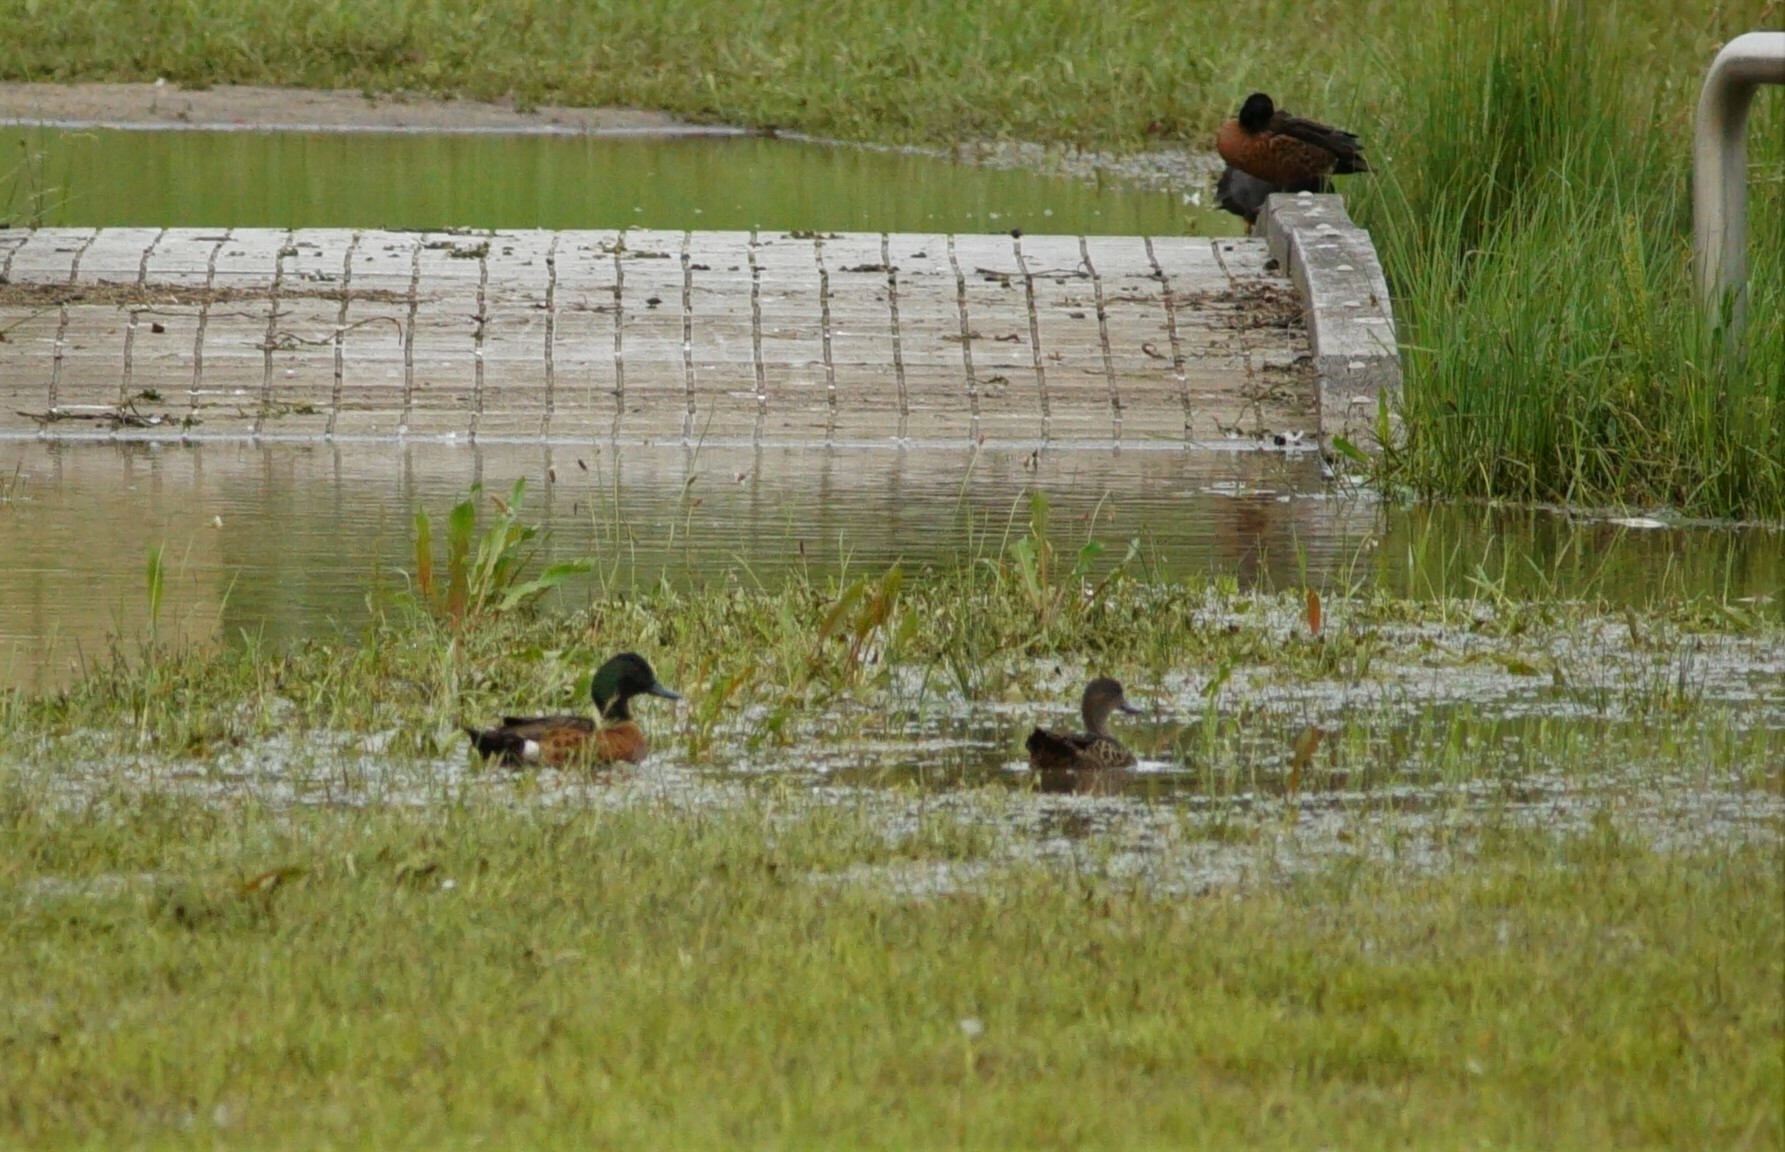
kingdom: Animalia
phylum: Chordata
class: Aves
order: Anseriformes
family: Anatidae
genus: Anas
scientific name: Anas castanea
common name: Chestnut teal
